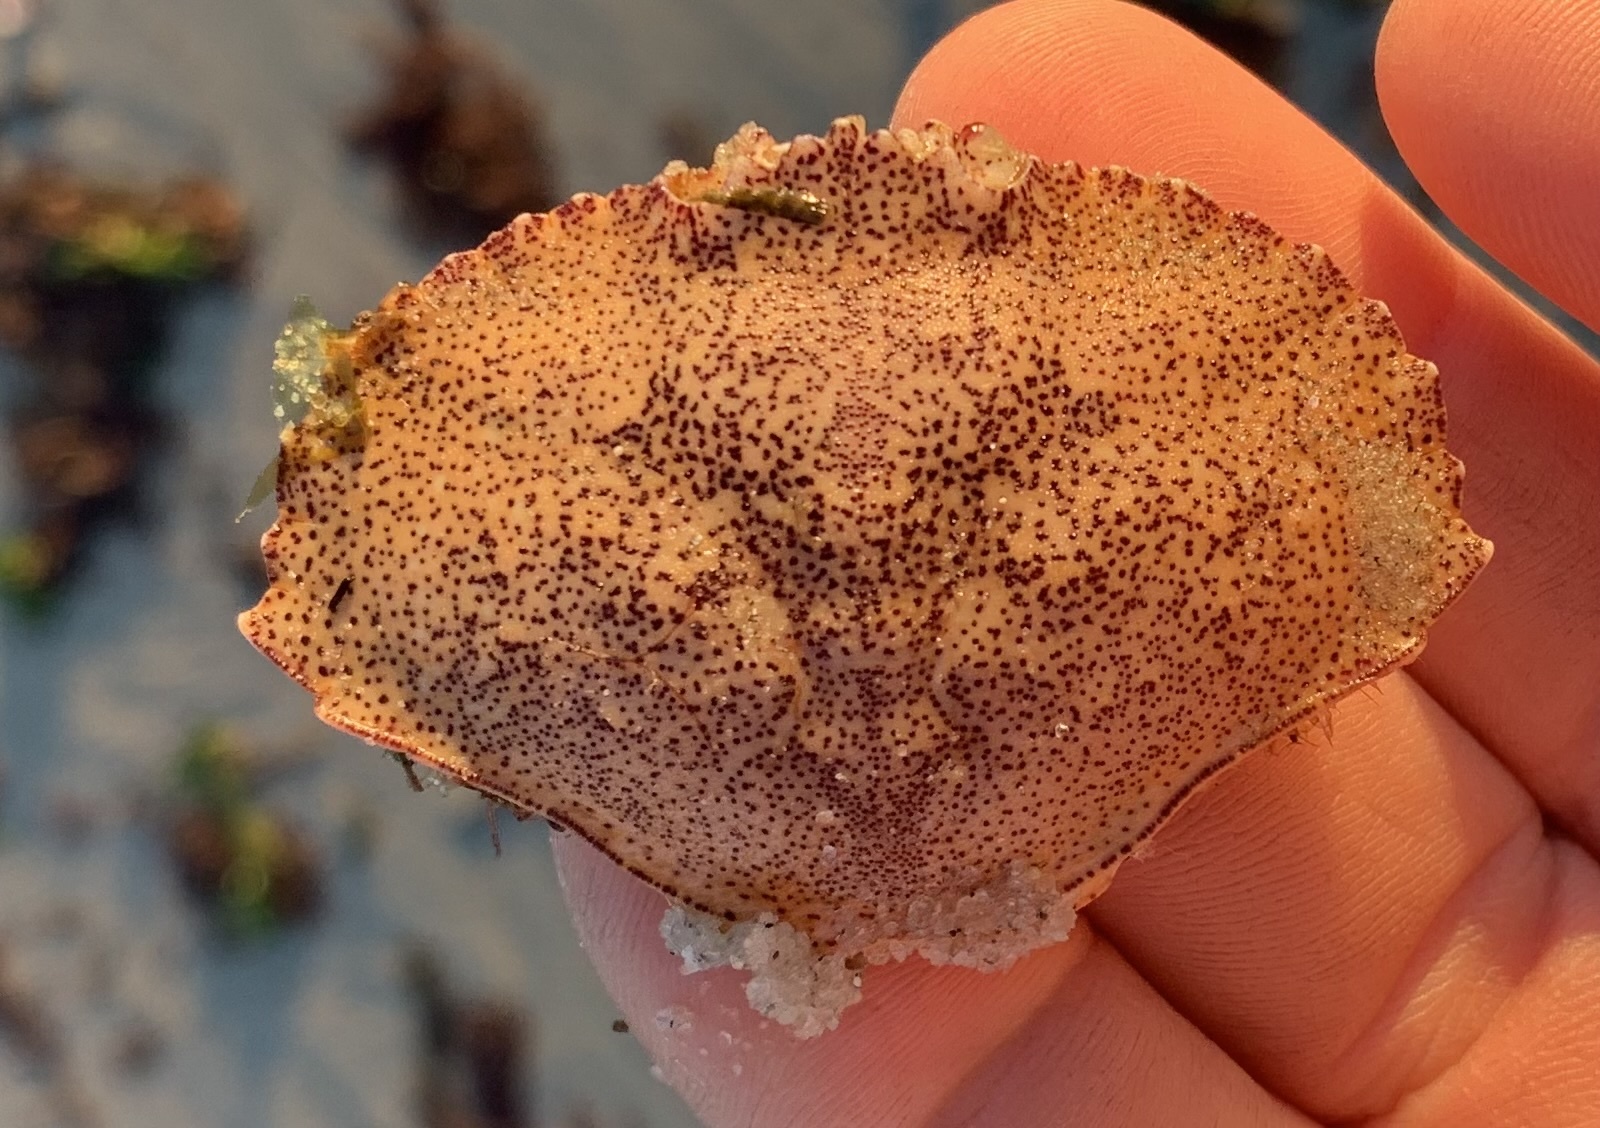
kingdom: Animalia
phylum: Arthropoda
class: Malacostraca
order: Decapoda
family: Cancridae
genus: Cancer
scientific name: Cancer irroratus
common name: Atlantic rock crab
